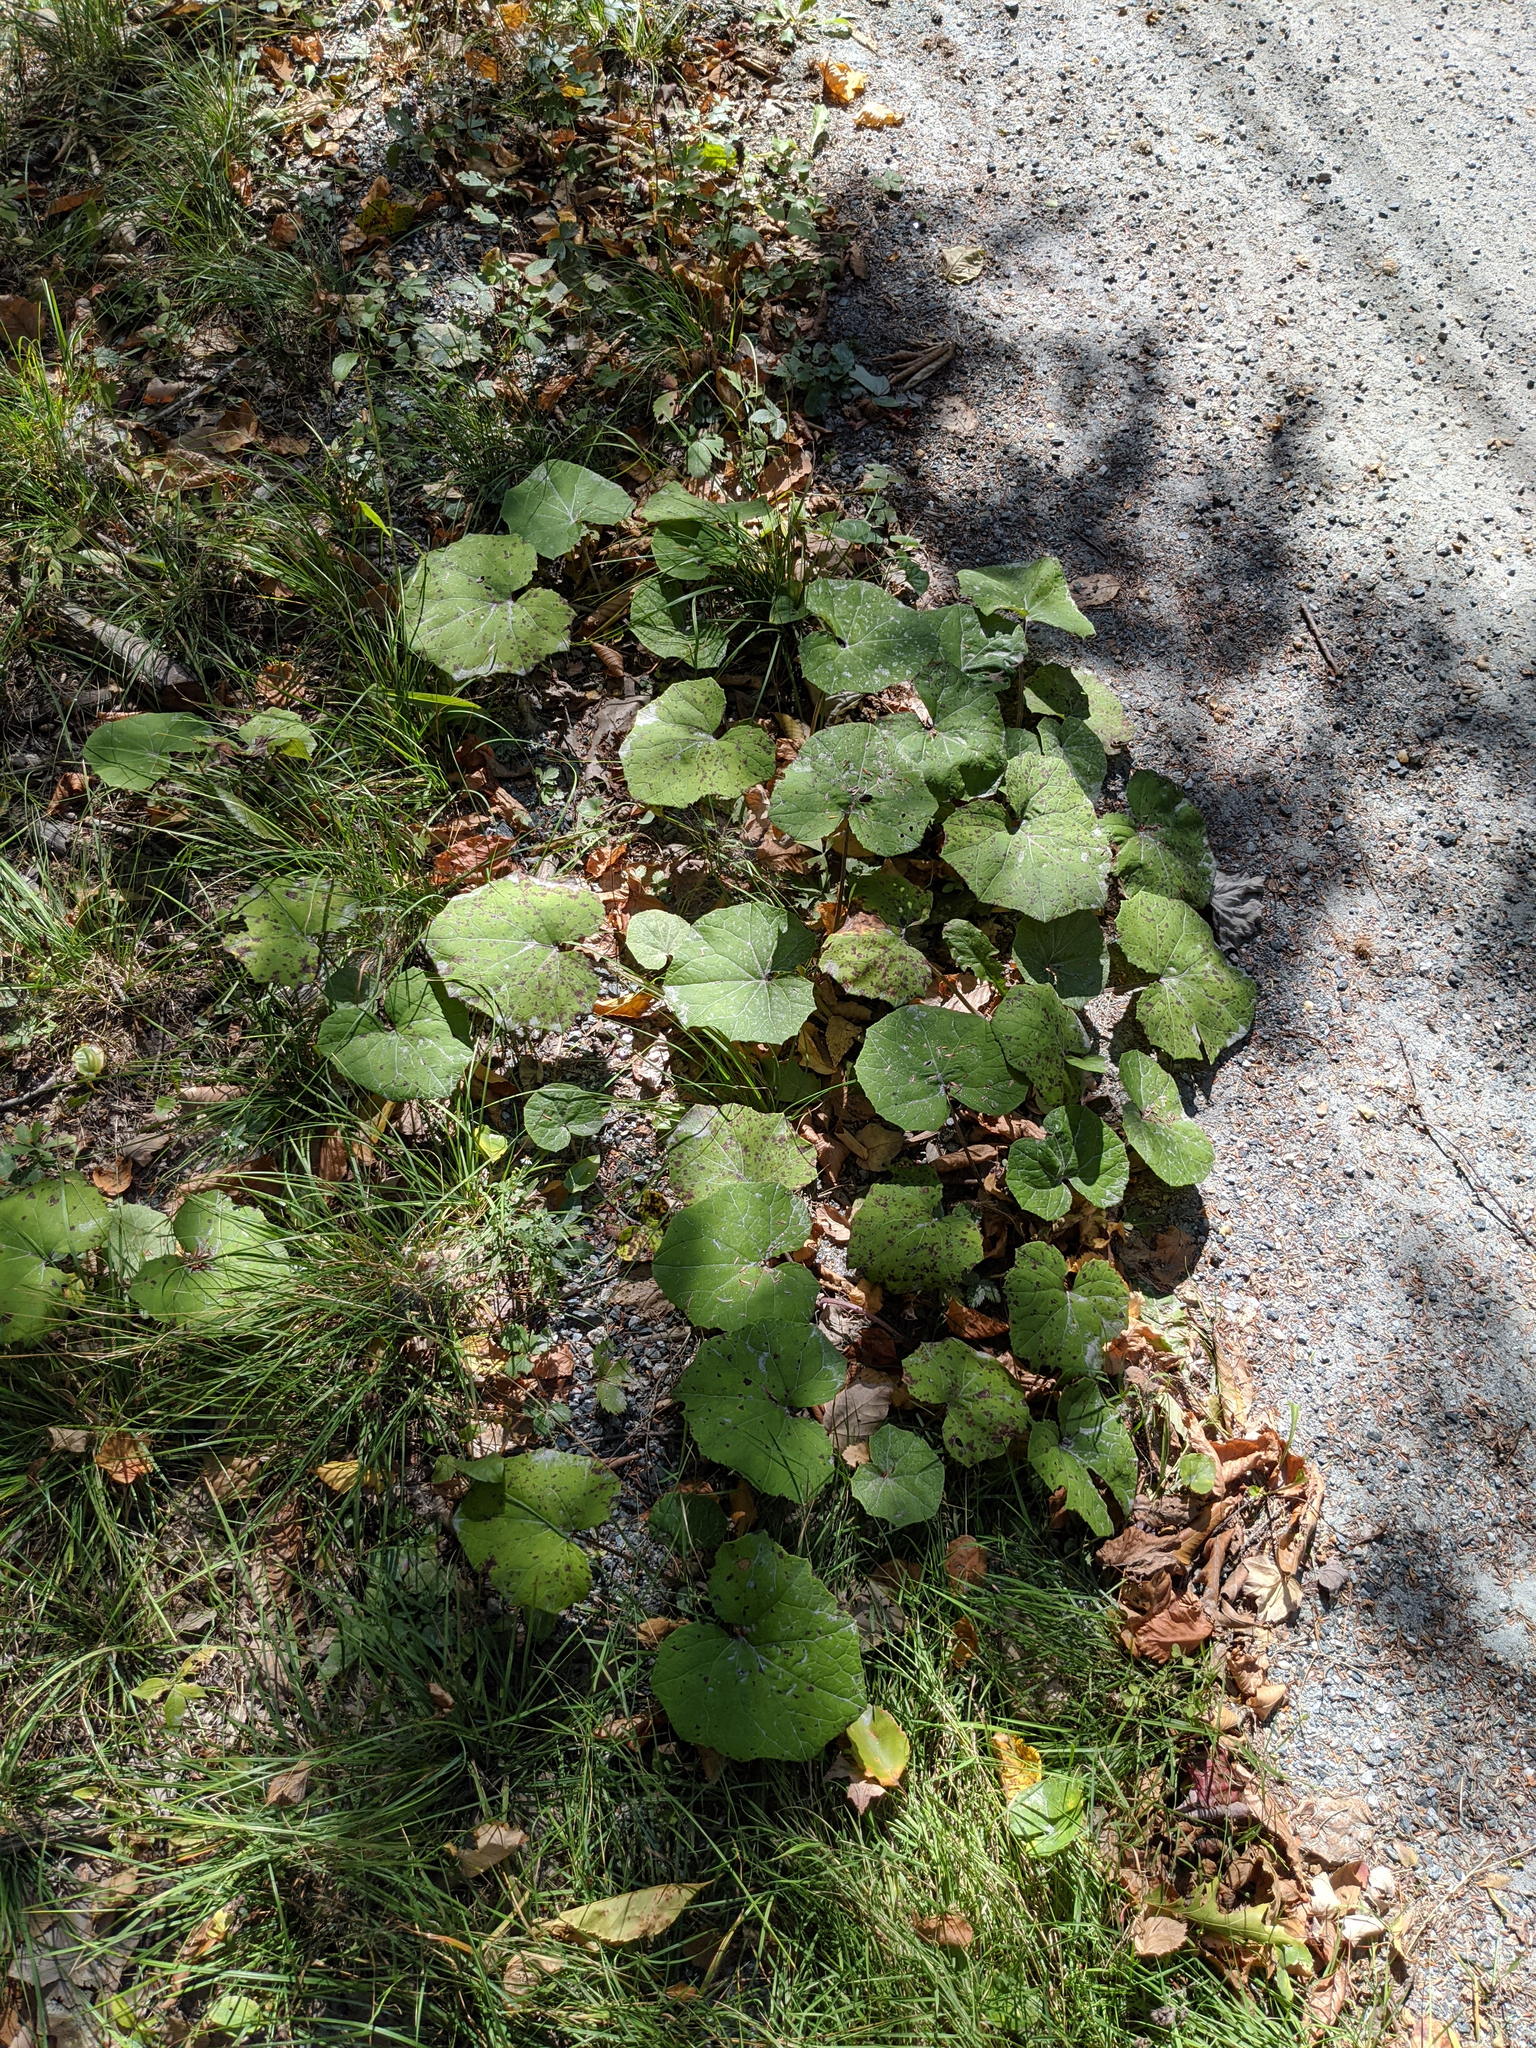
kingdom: Plantae
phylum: Tracheophyta
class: Magnoliopsida
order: Asterales
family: Asteraceae
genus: Tussilago
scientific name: Tussilago farfara
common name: Coltsfoot
